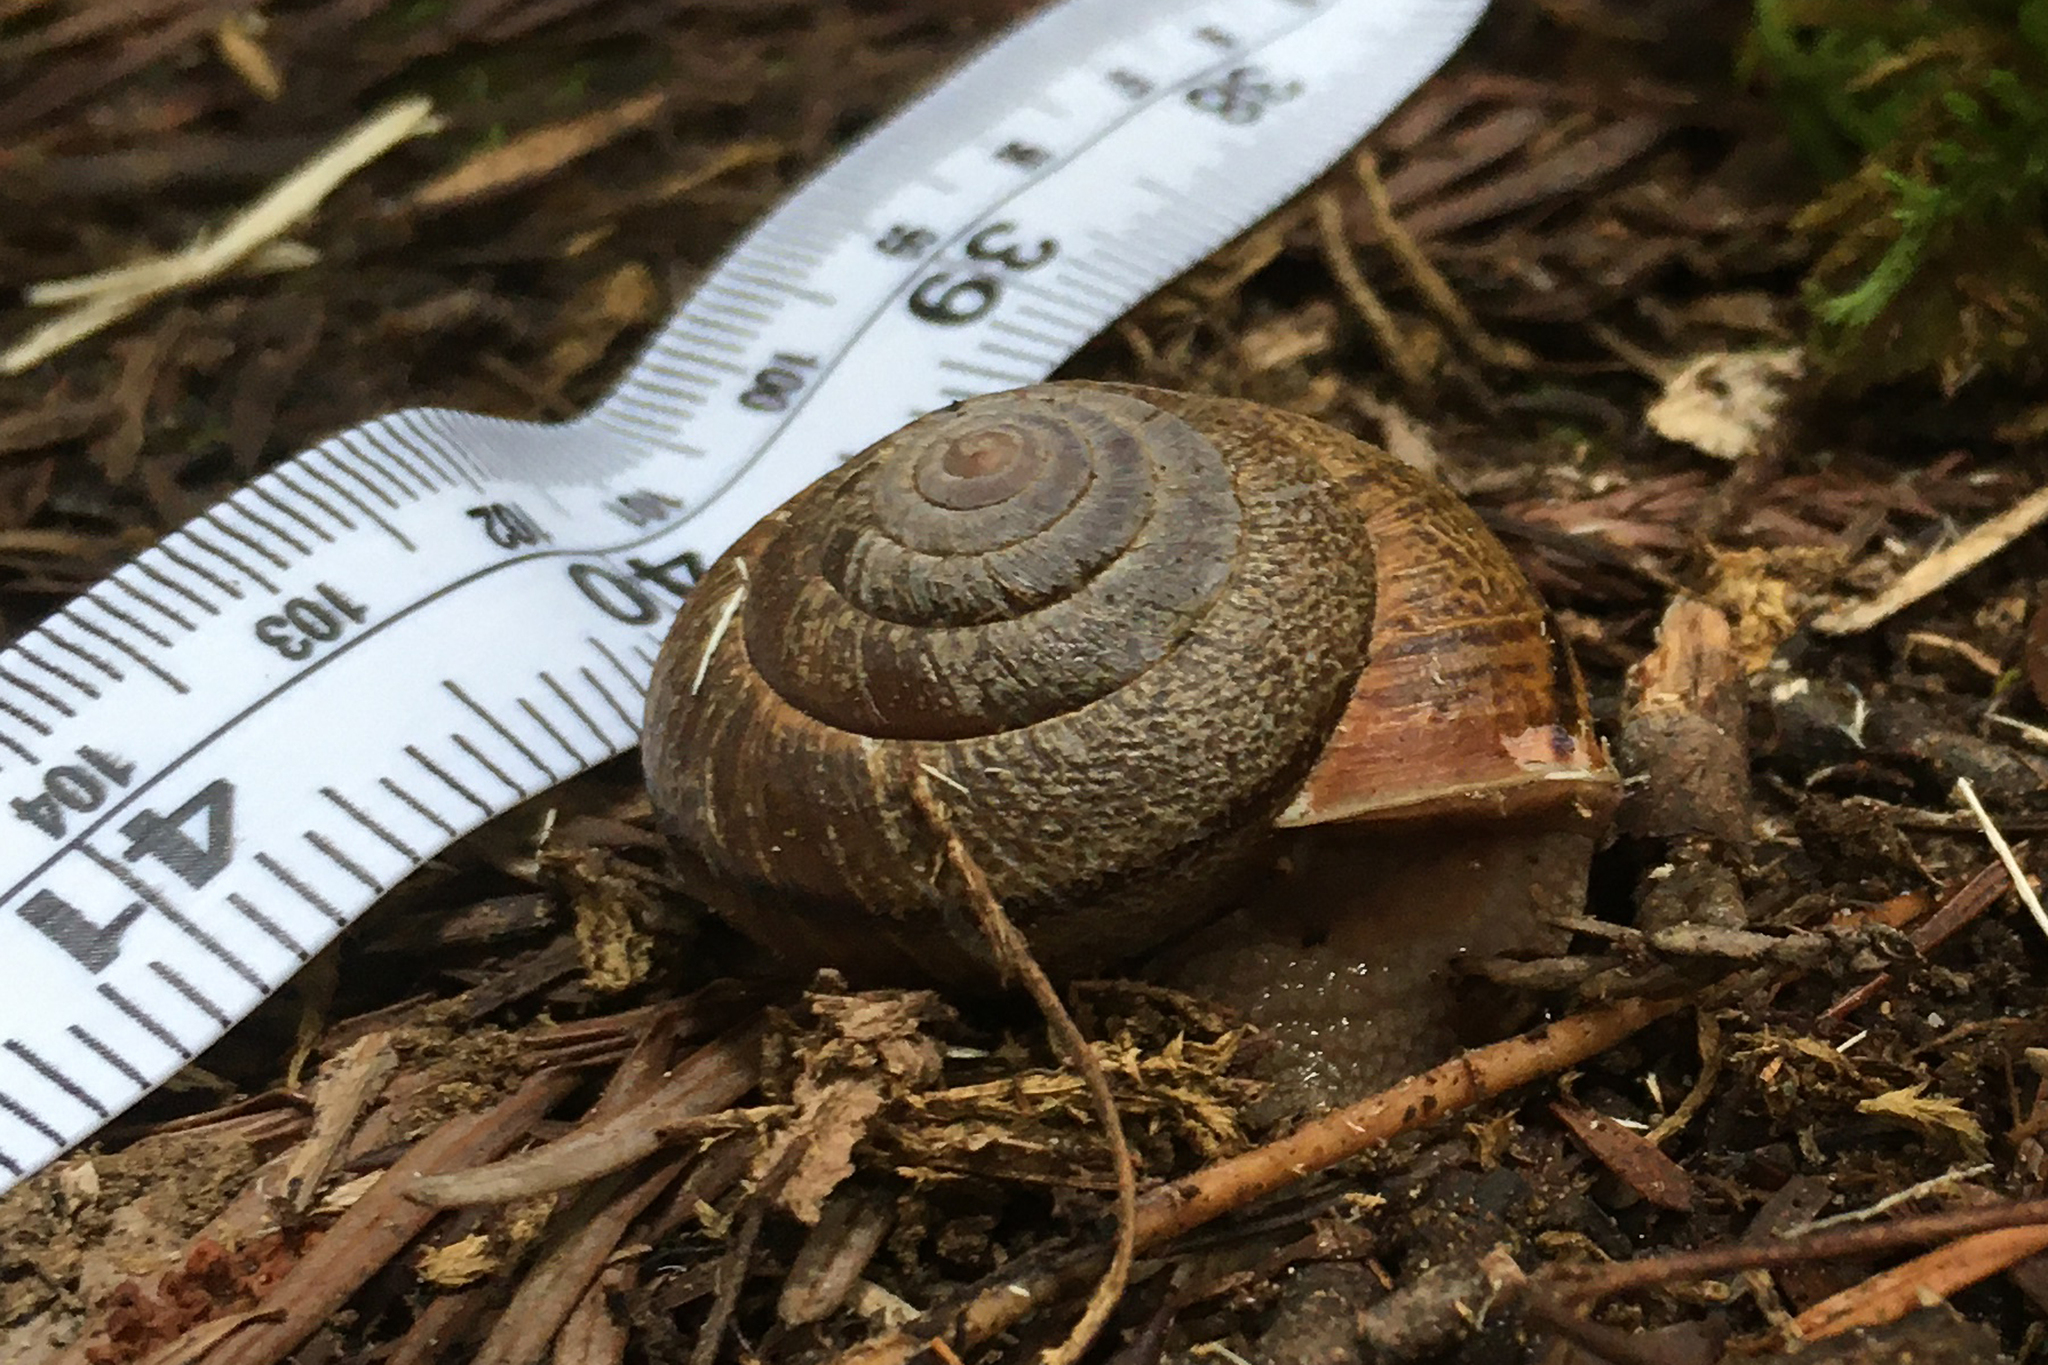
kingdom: Animalia
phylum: Mollusca
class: Gastropoda
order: Stylommatophora
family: Xanthonychidae
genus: Helminthoglypta
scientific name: Helminthoglypta arrosa
